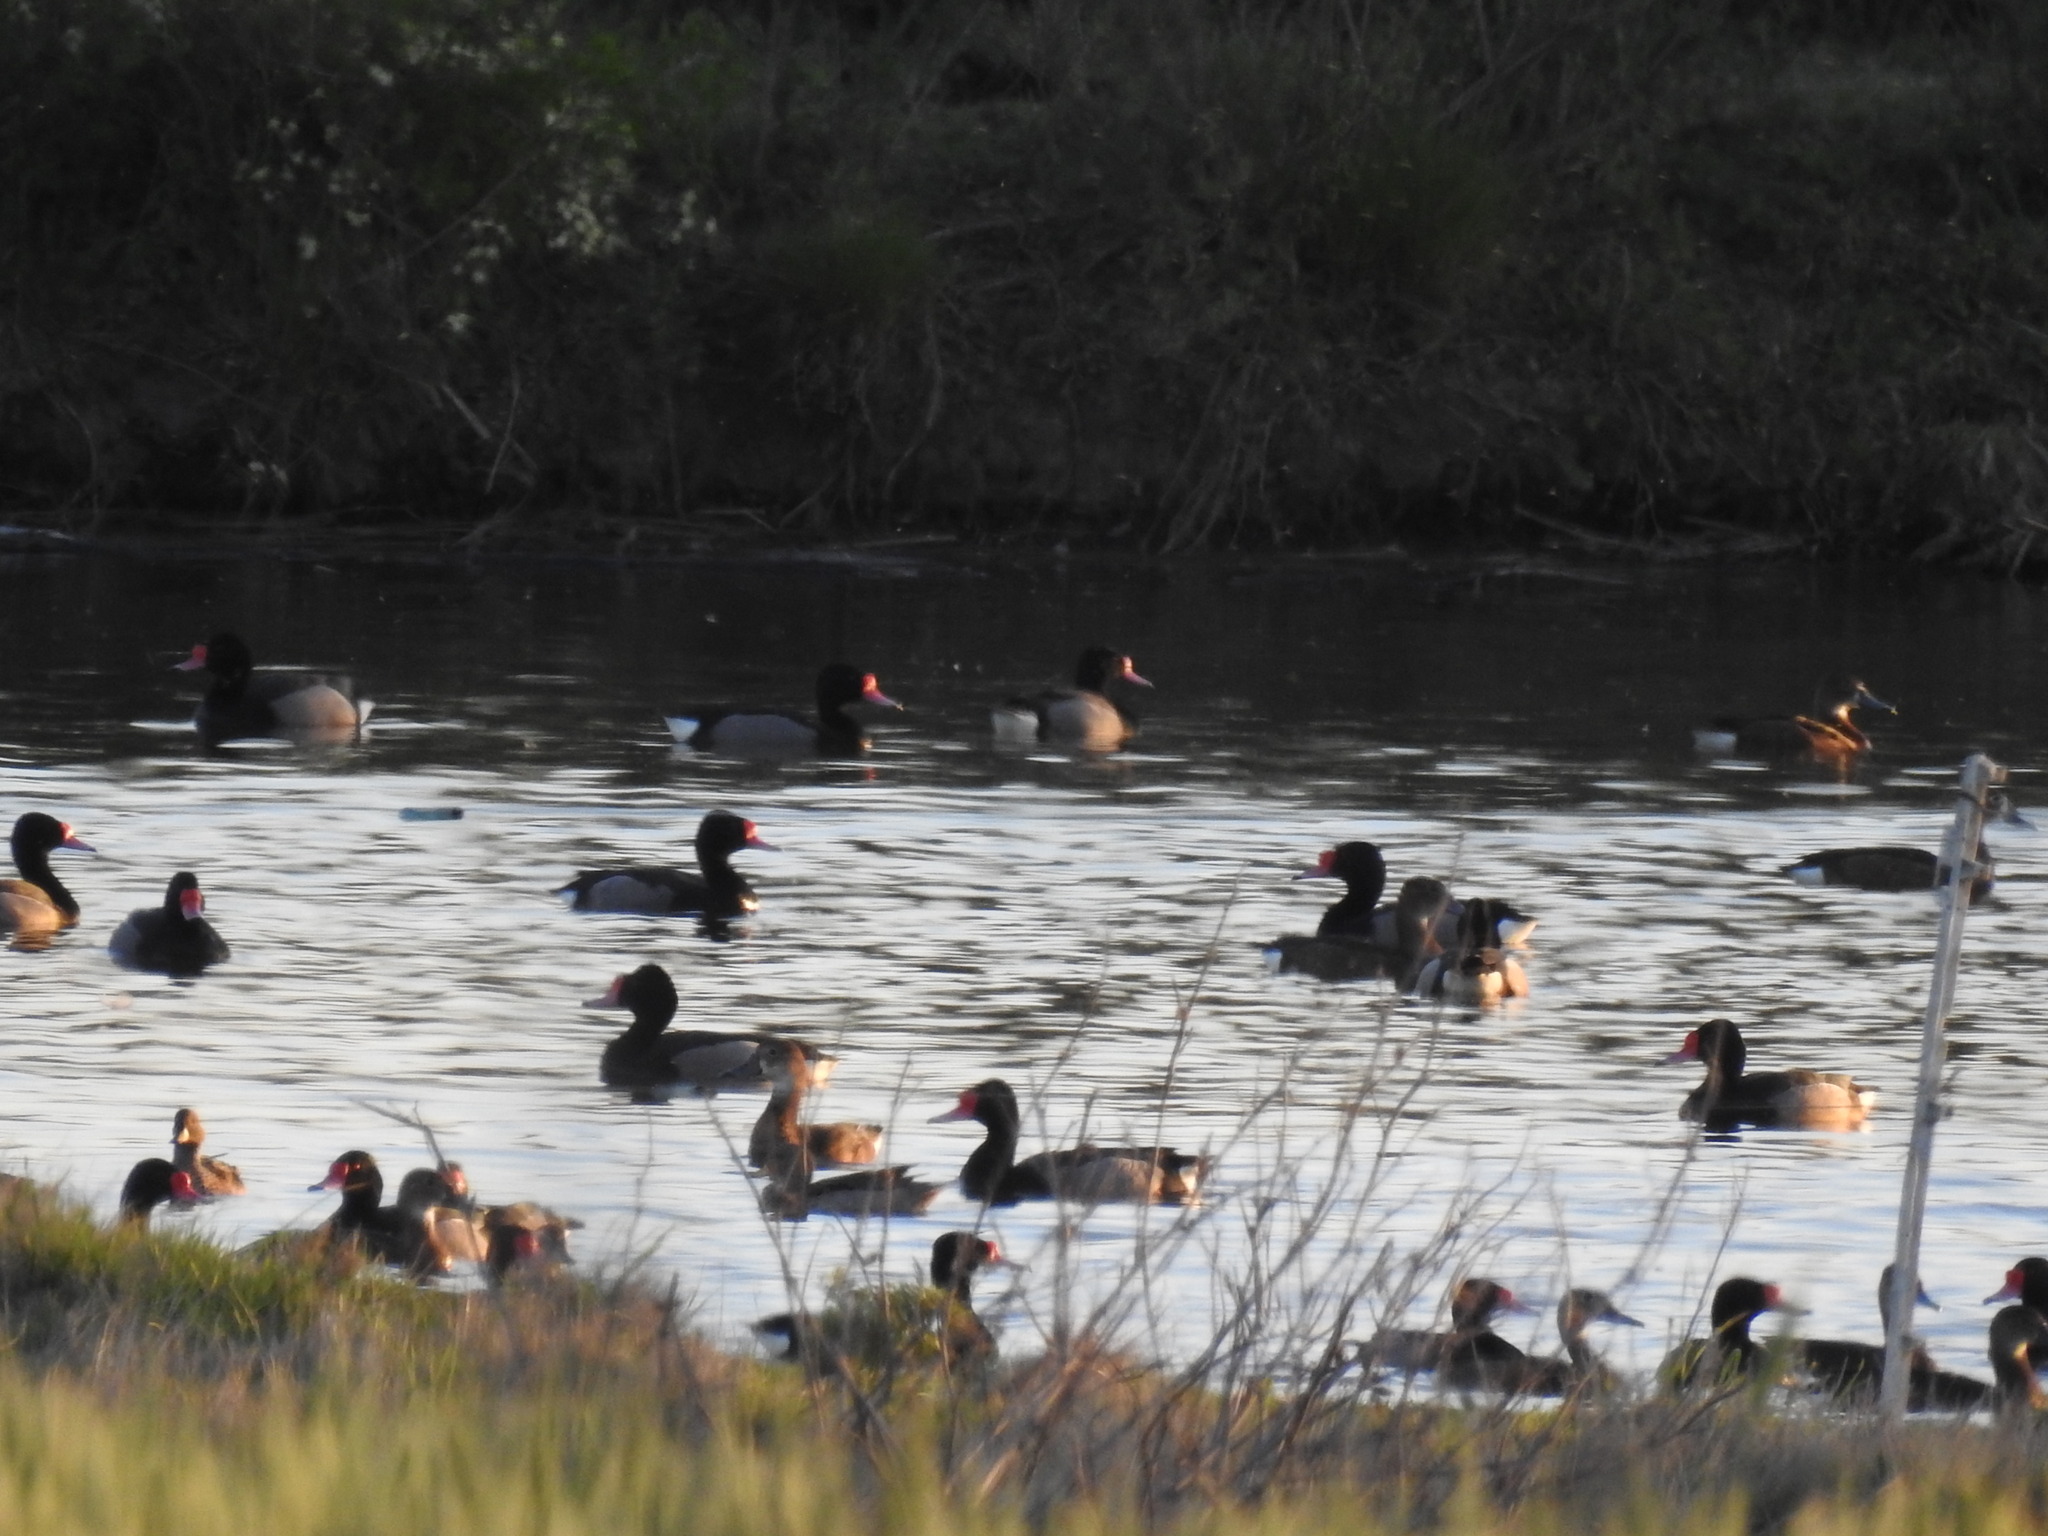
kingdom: Animalia
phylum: Chordata
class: Aves
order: Anseriformes
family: Anatidae
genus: Netta
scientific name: Netta peposaca
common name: Rosy-billed pochard
